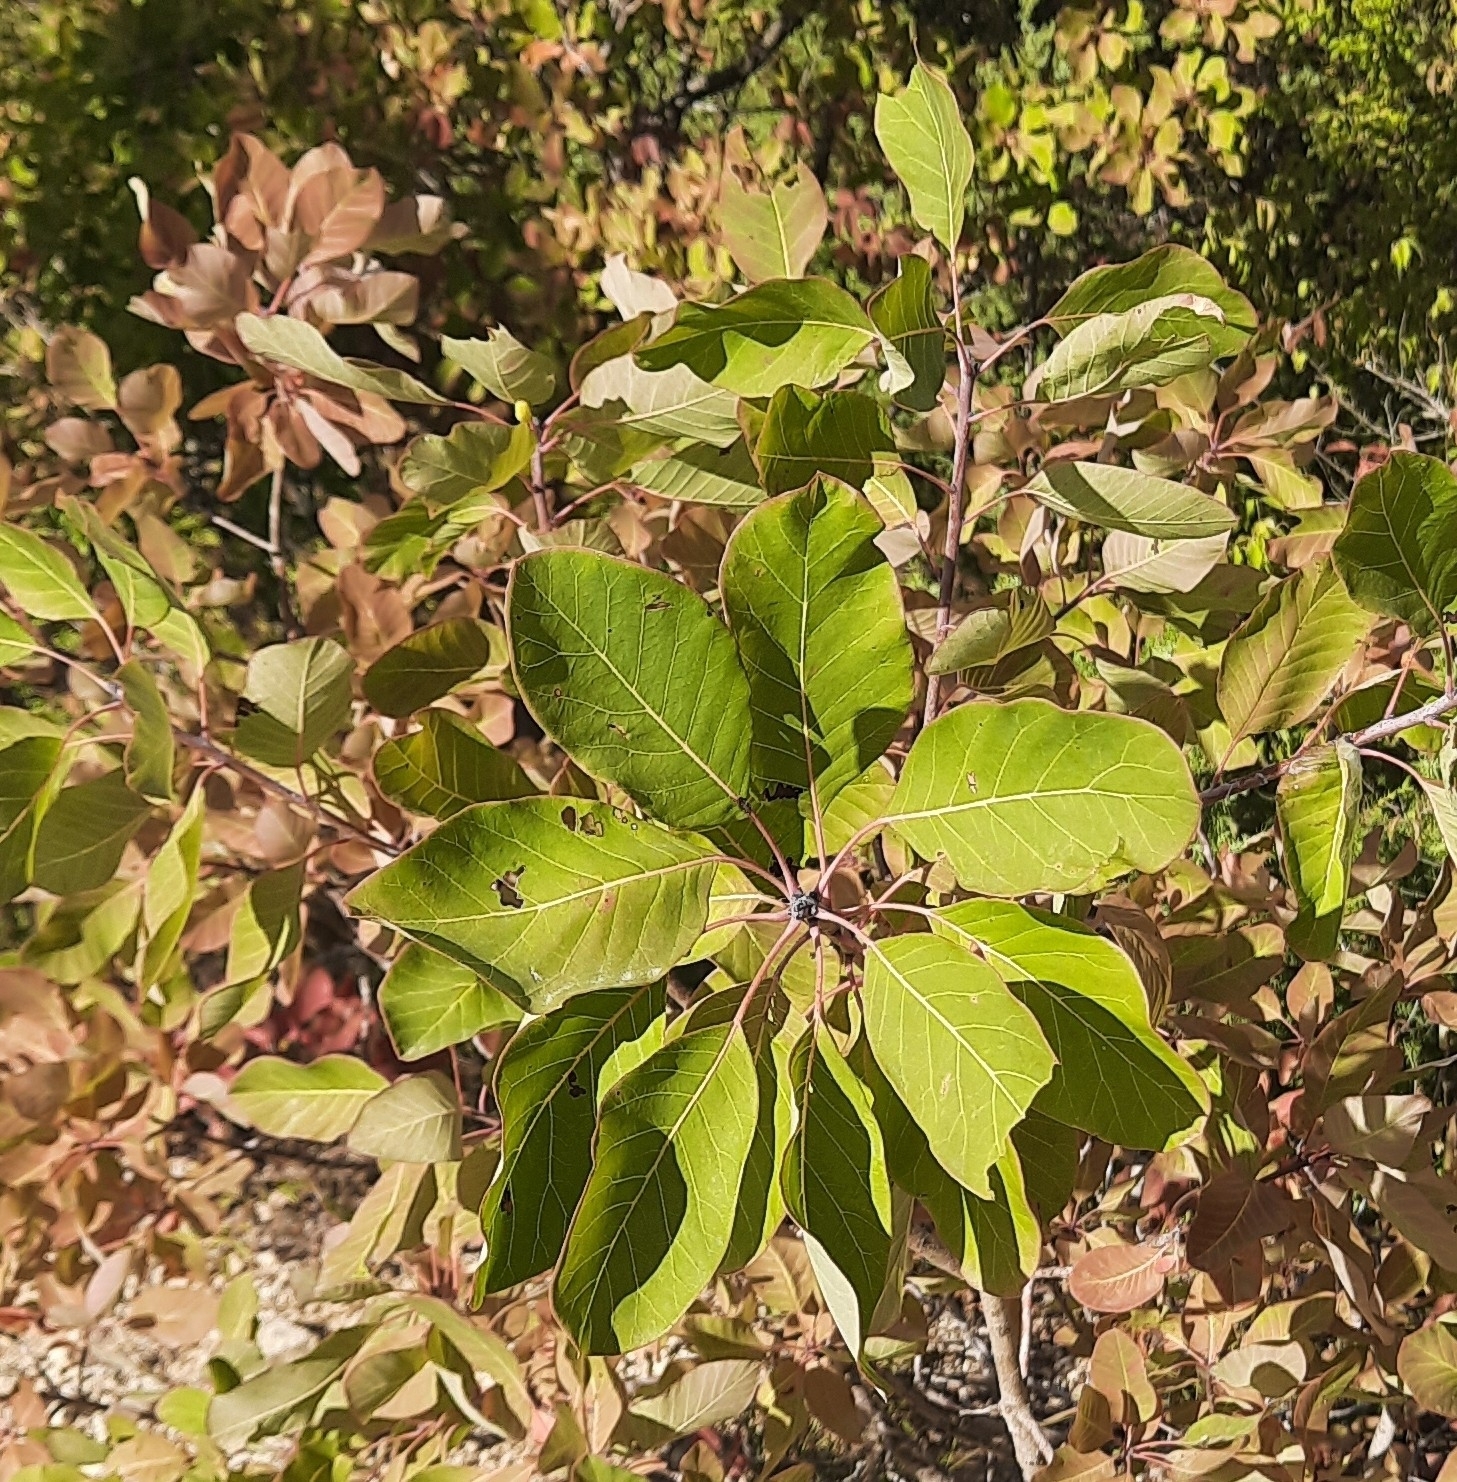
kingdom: Plantae
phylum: Tracheophyta
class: Magnoliopsida
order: Sapindales
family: Anacardiaceae
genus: Cotinus
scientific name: Cotinus coggygria
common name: Smoke-tree
